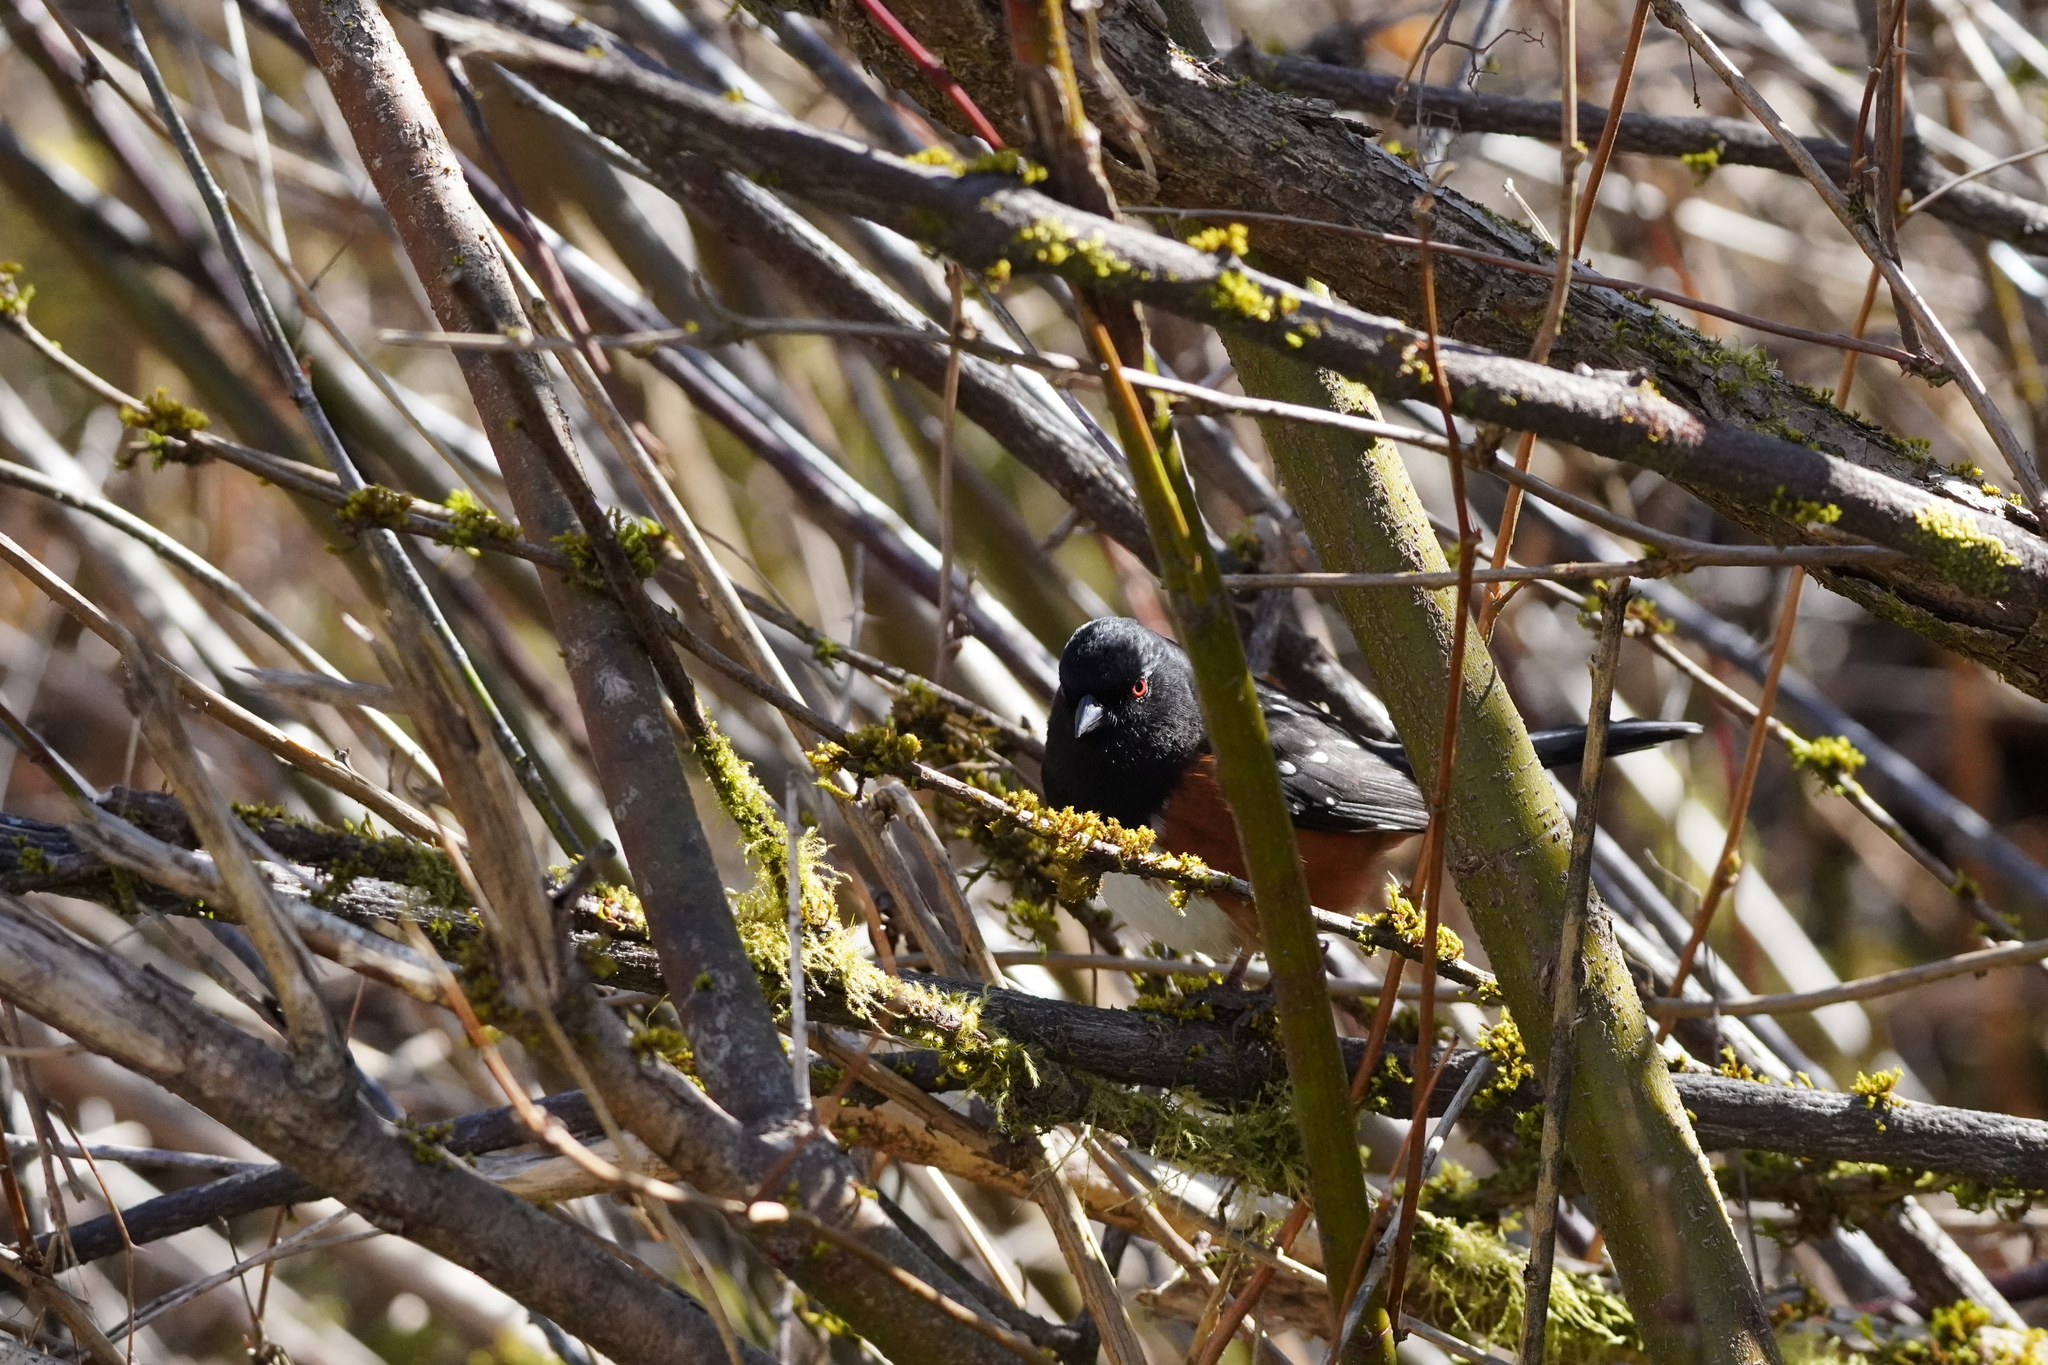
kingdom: Animalia
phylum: Chordata
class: Aves
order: Passeriformes
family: Passerellidae
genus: Pipilo
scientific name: Pipilo maculatus
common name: Spotted towhee
